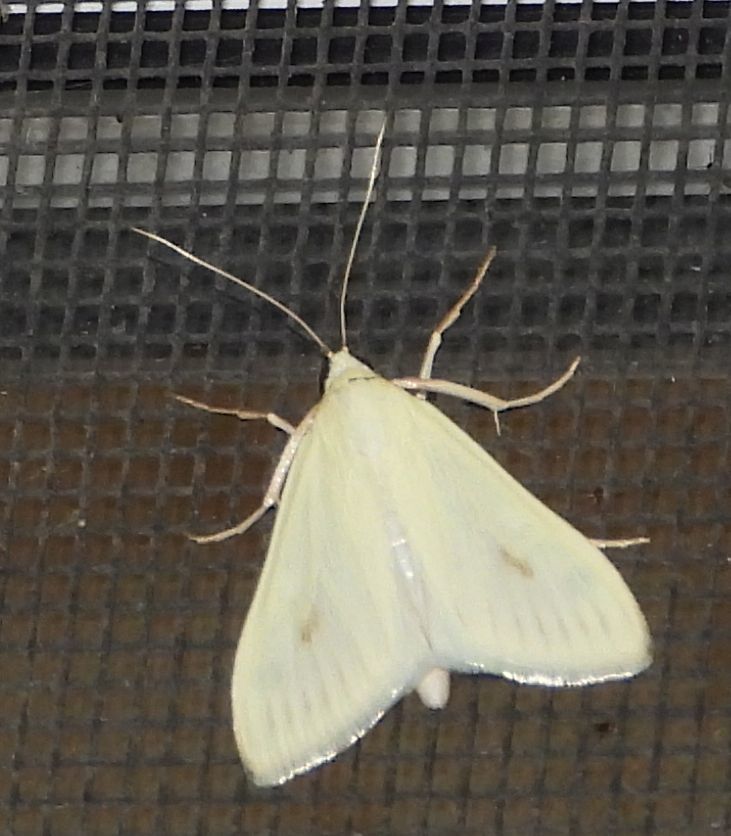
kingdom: Animalia
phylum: Arthropoda
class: Insecta
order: Lepidoptera
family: Crambidae
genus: Sitochroa
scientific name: Sitochroa palealis
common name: Greenish-yellow sitochroa moth
